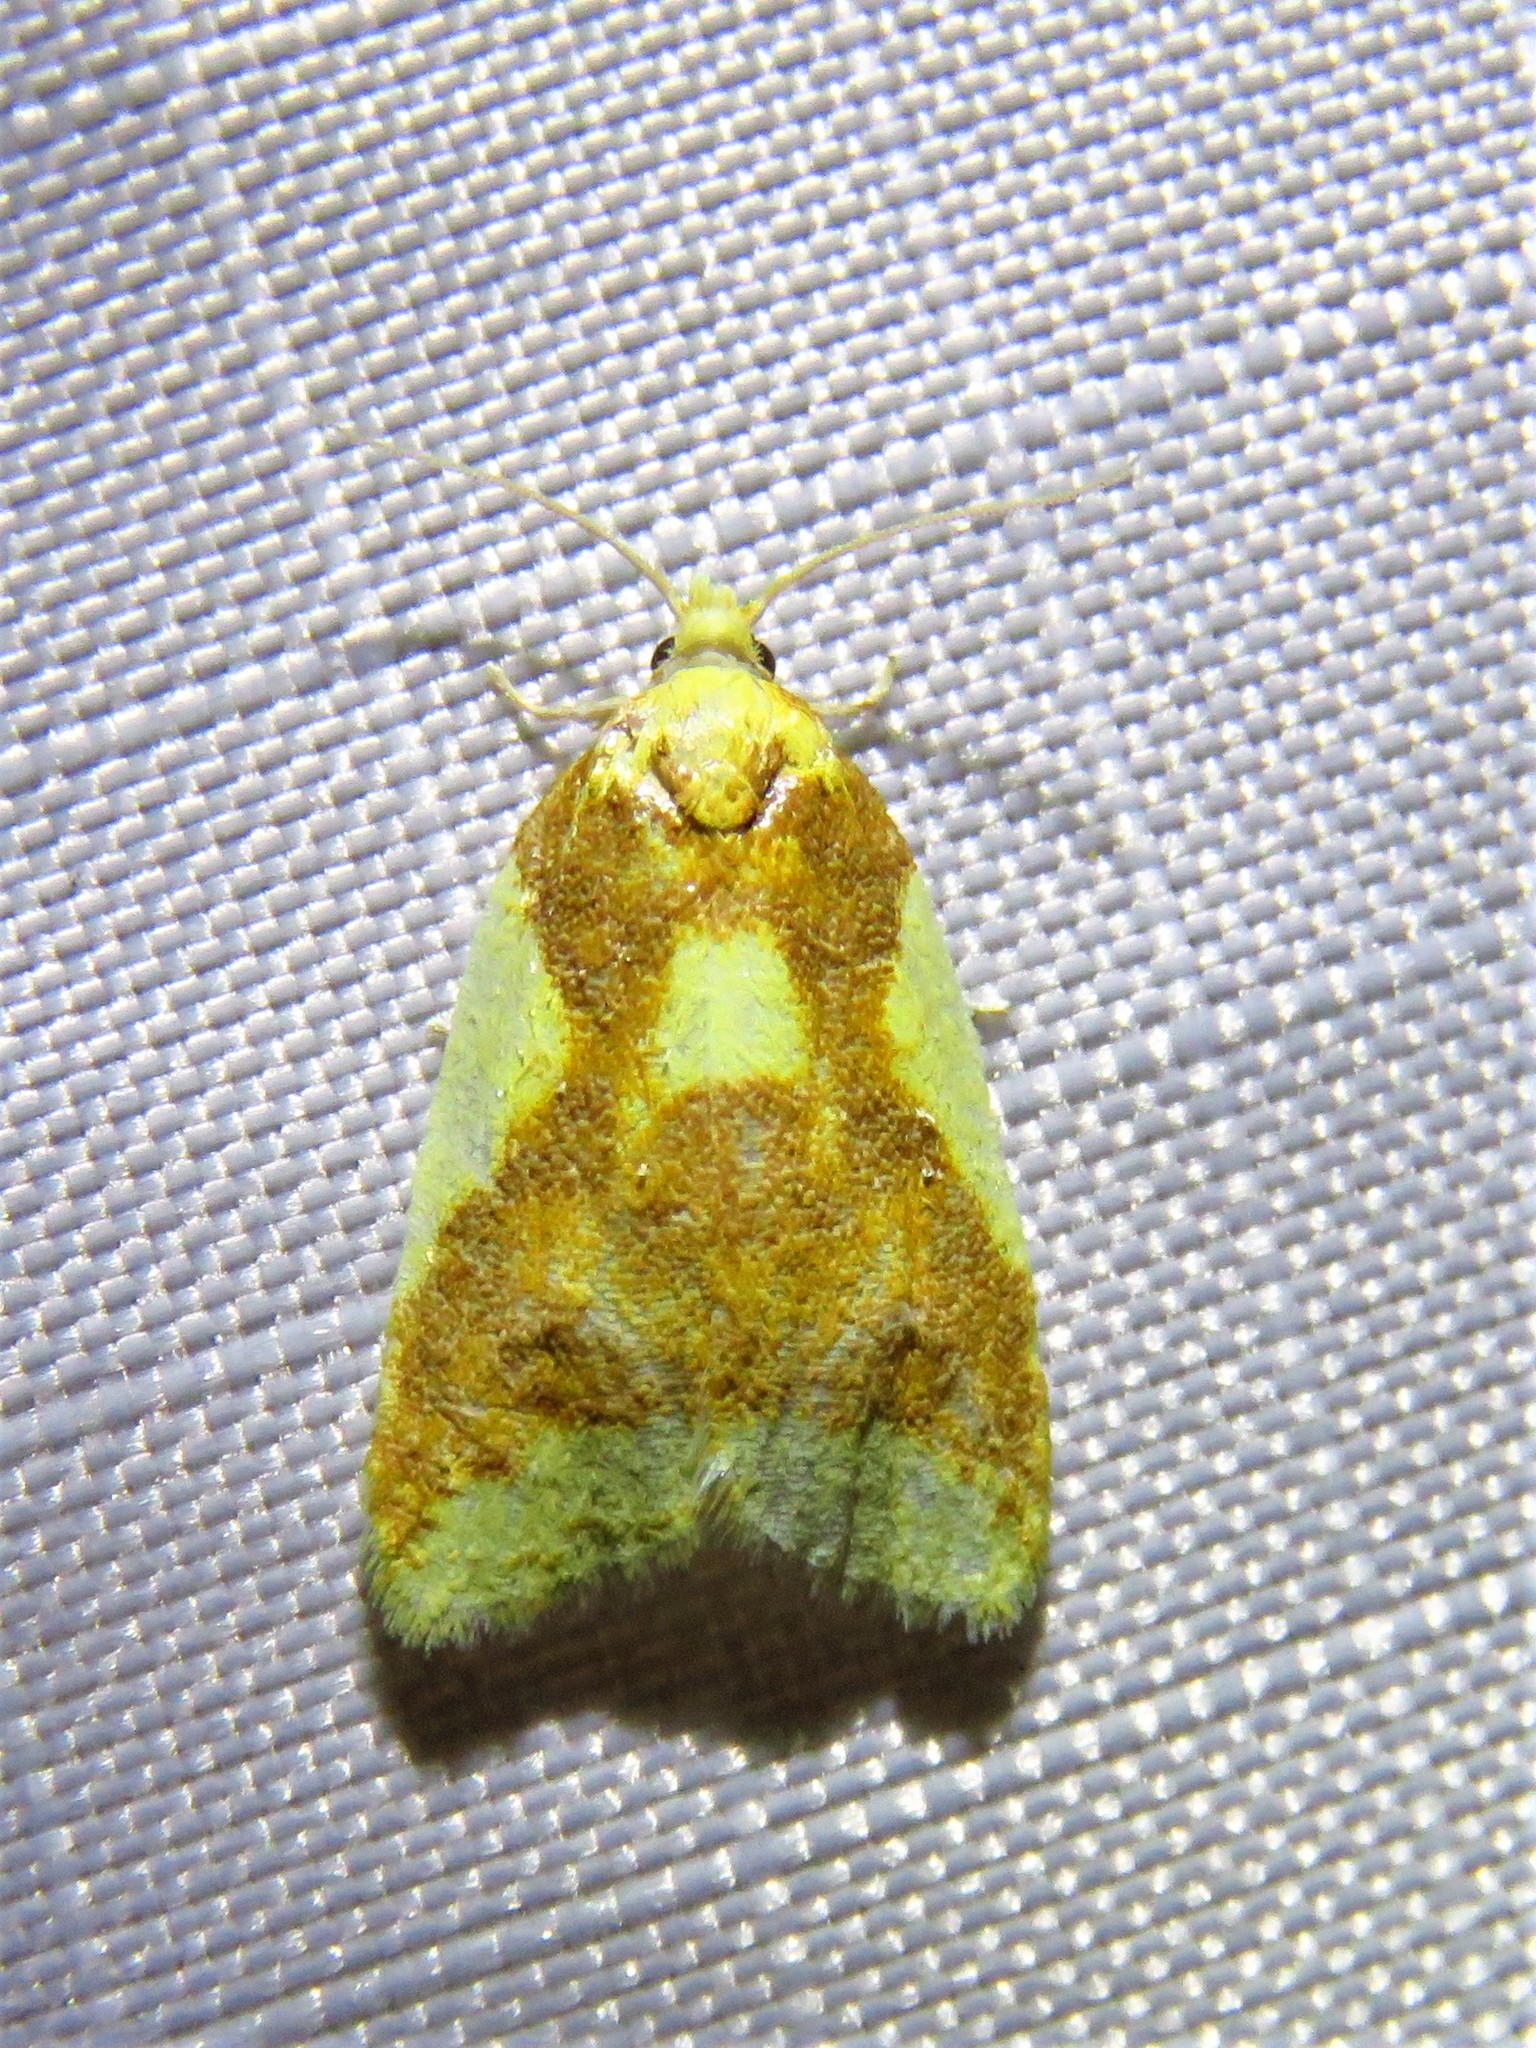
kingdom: Animalia
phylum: Arthropoda
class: Insecta
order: Lepidoptera
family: Tortricidae
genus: Sparganothis
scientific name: Sparganothis pulcherrimana
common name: Beautiful sparganothis
